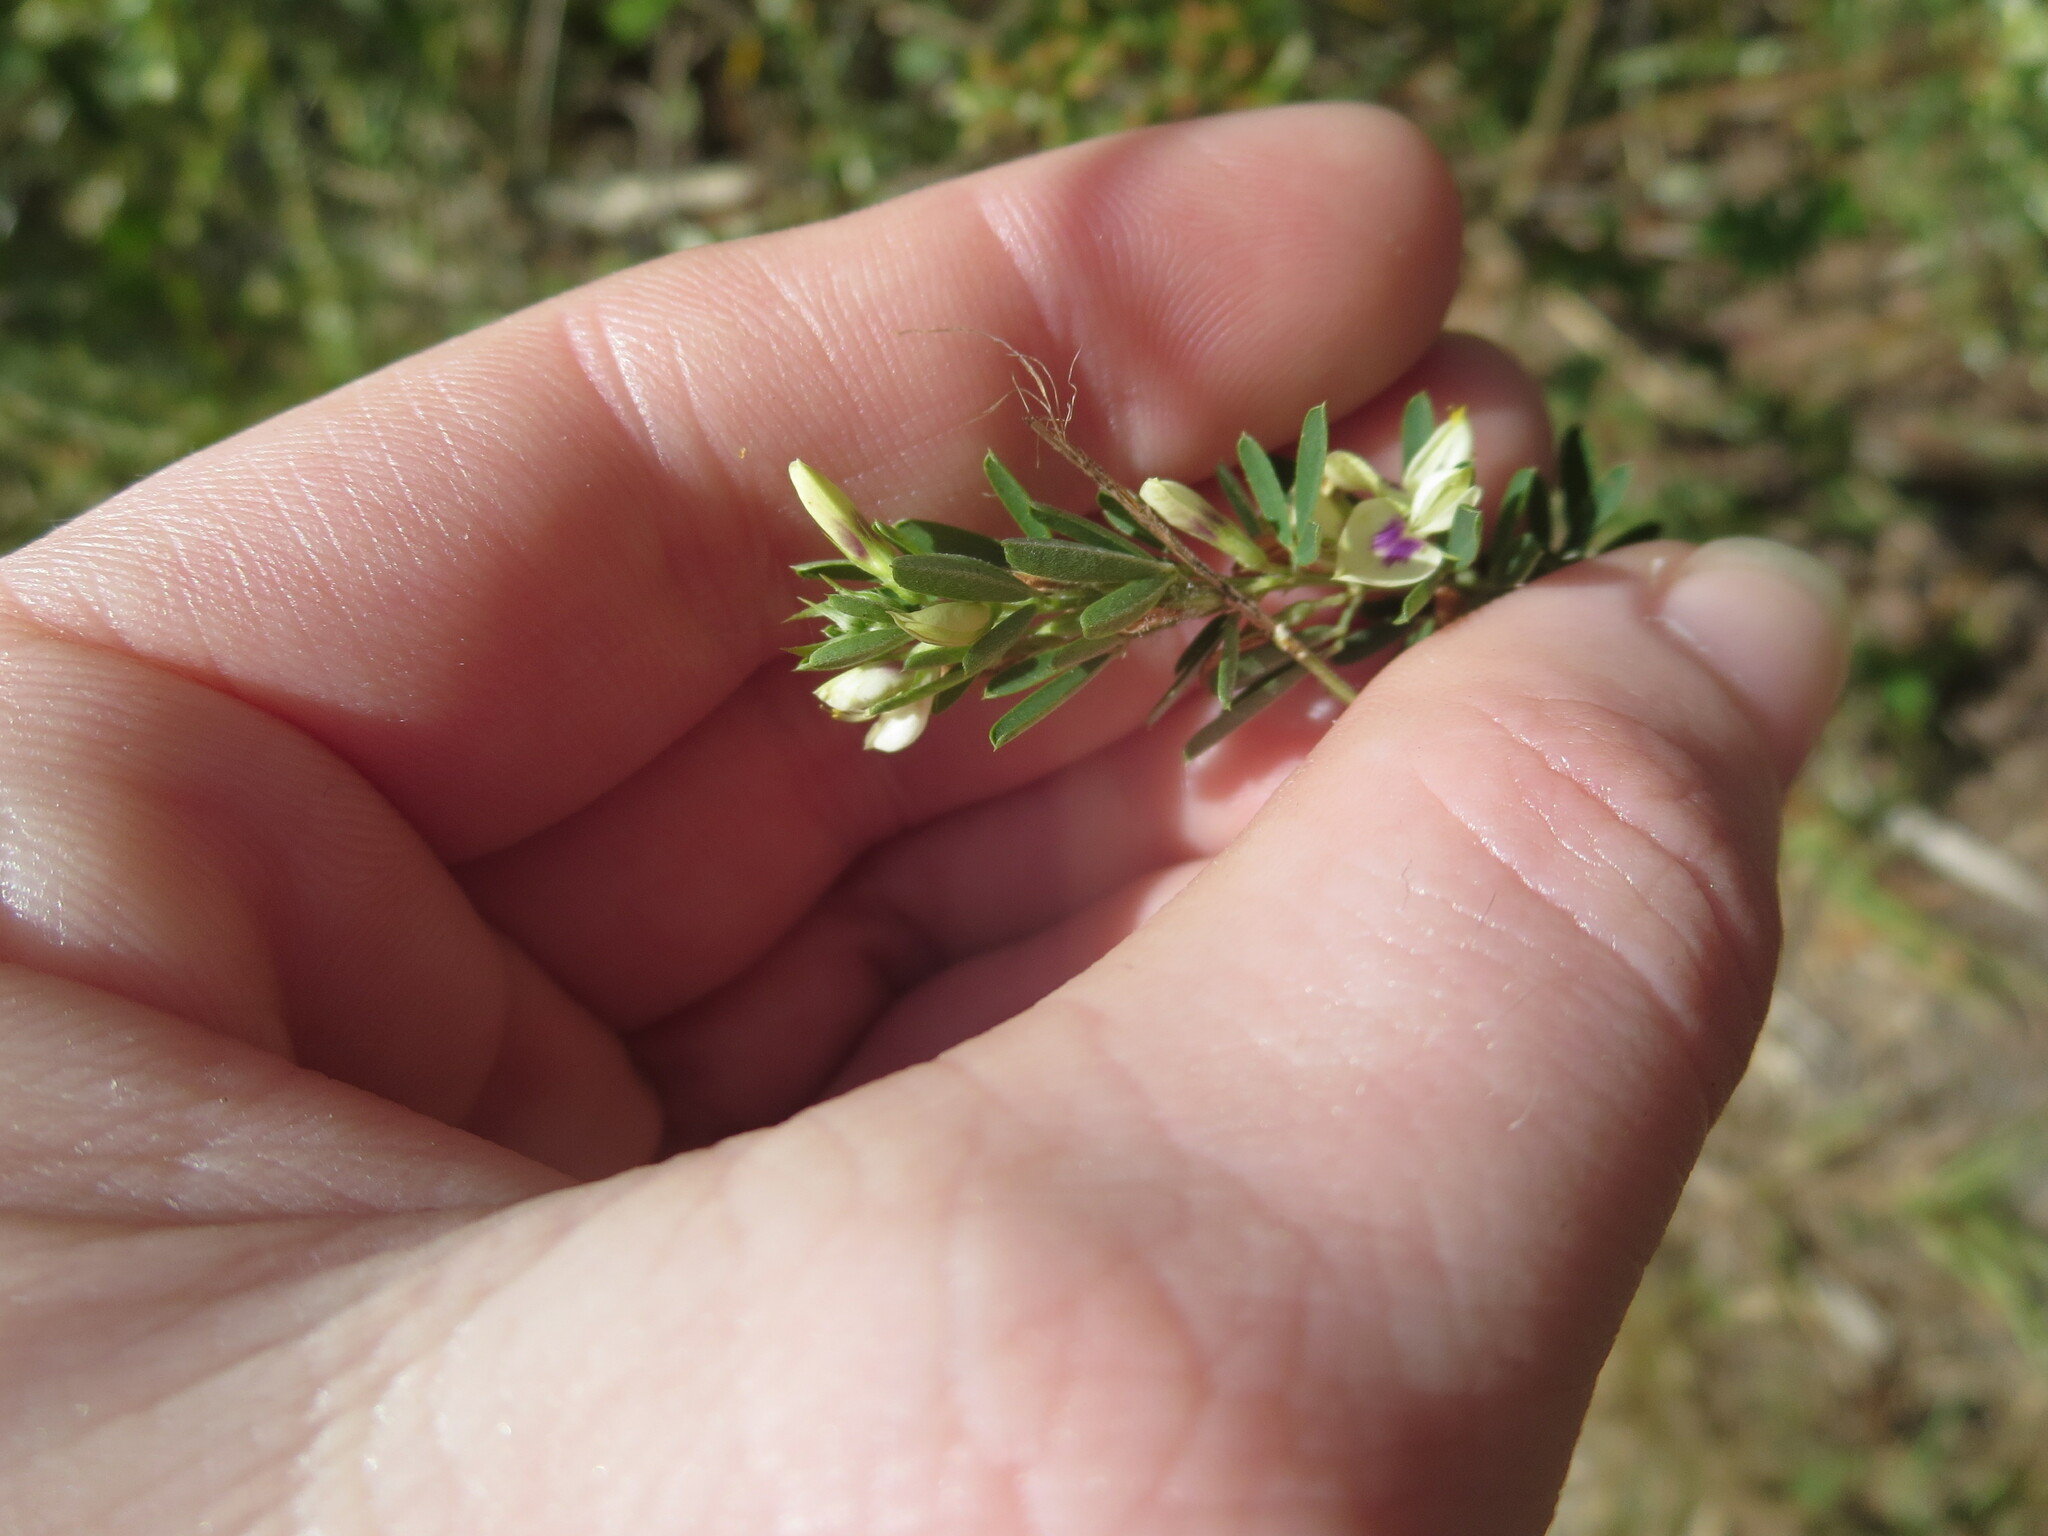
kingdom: Plantae
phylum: Tracheophyta
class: Magnoliopsida
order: Fabales
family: Fabaceae
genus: Lespedeza
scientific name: Lespedeza cuneata
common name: Chinese bush-clover
